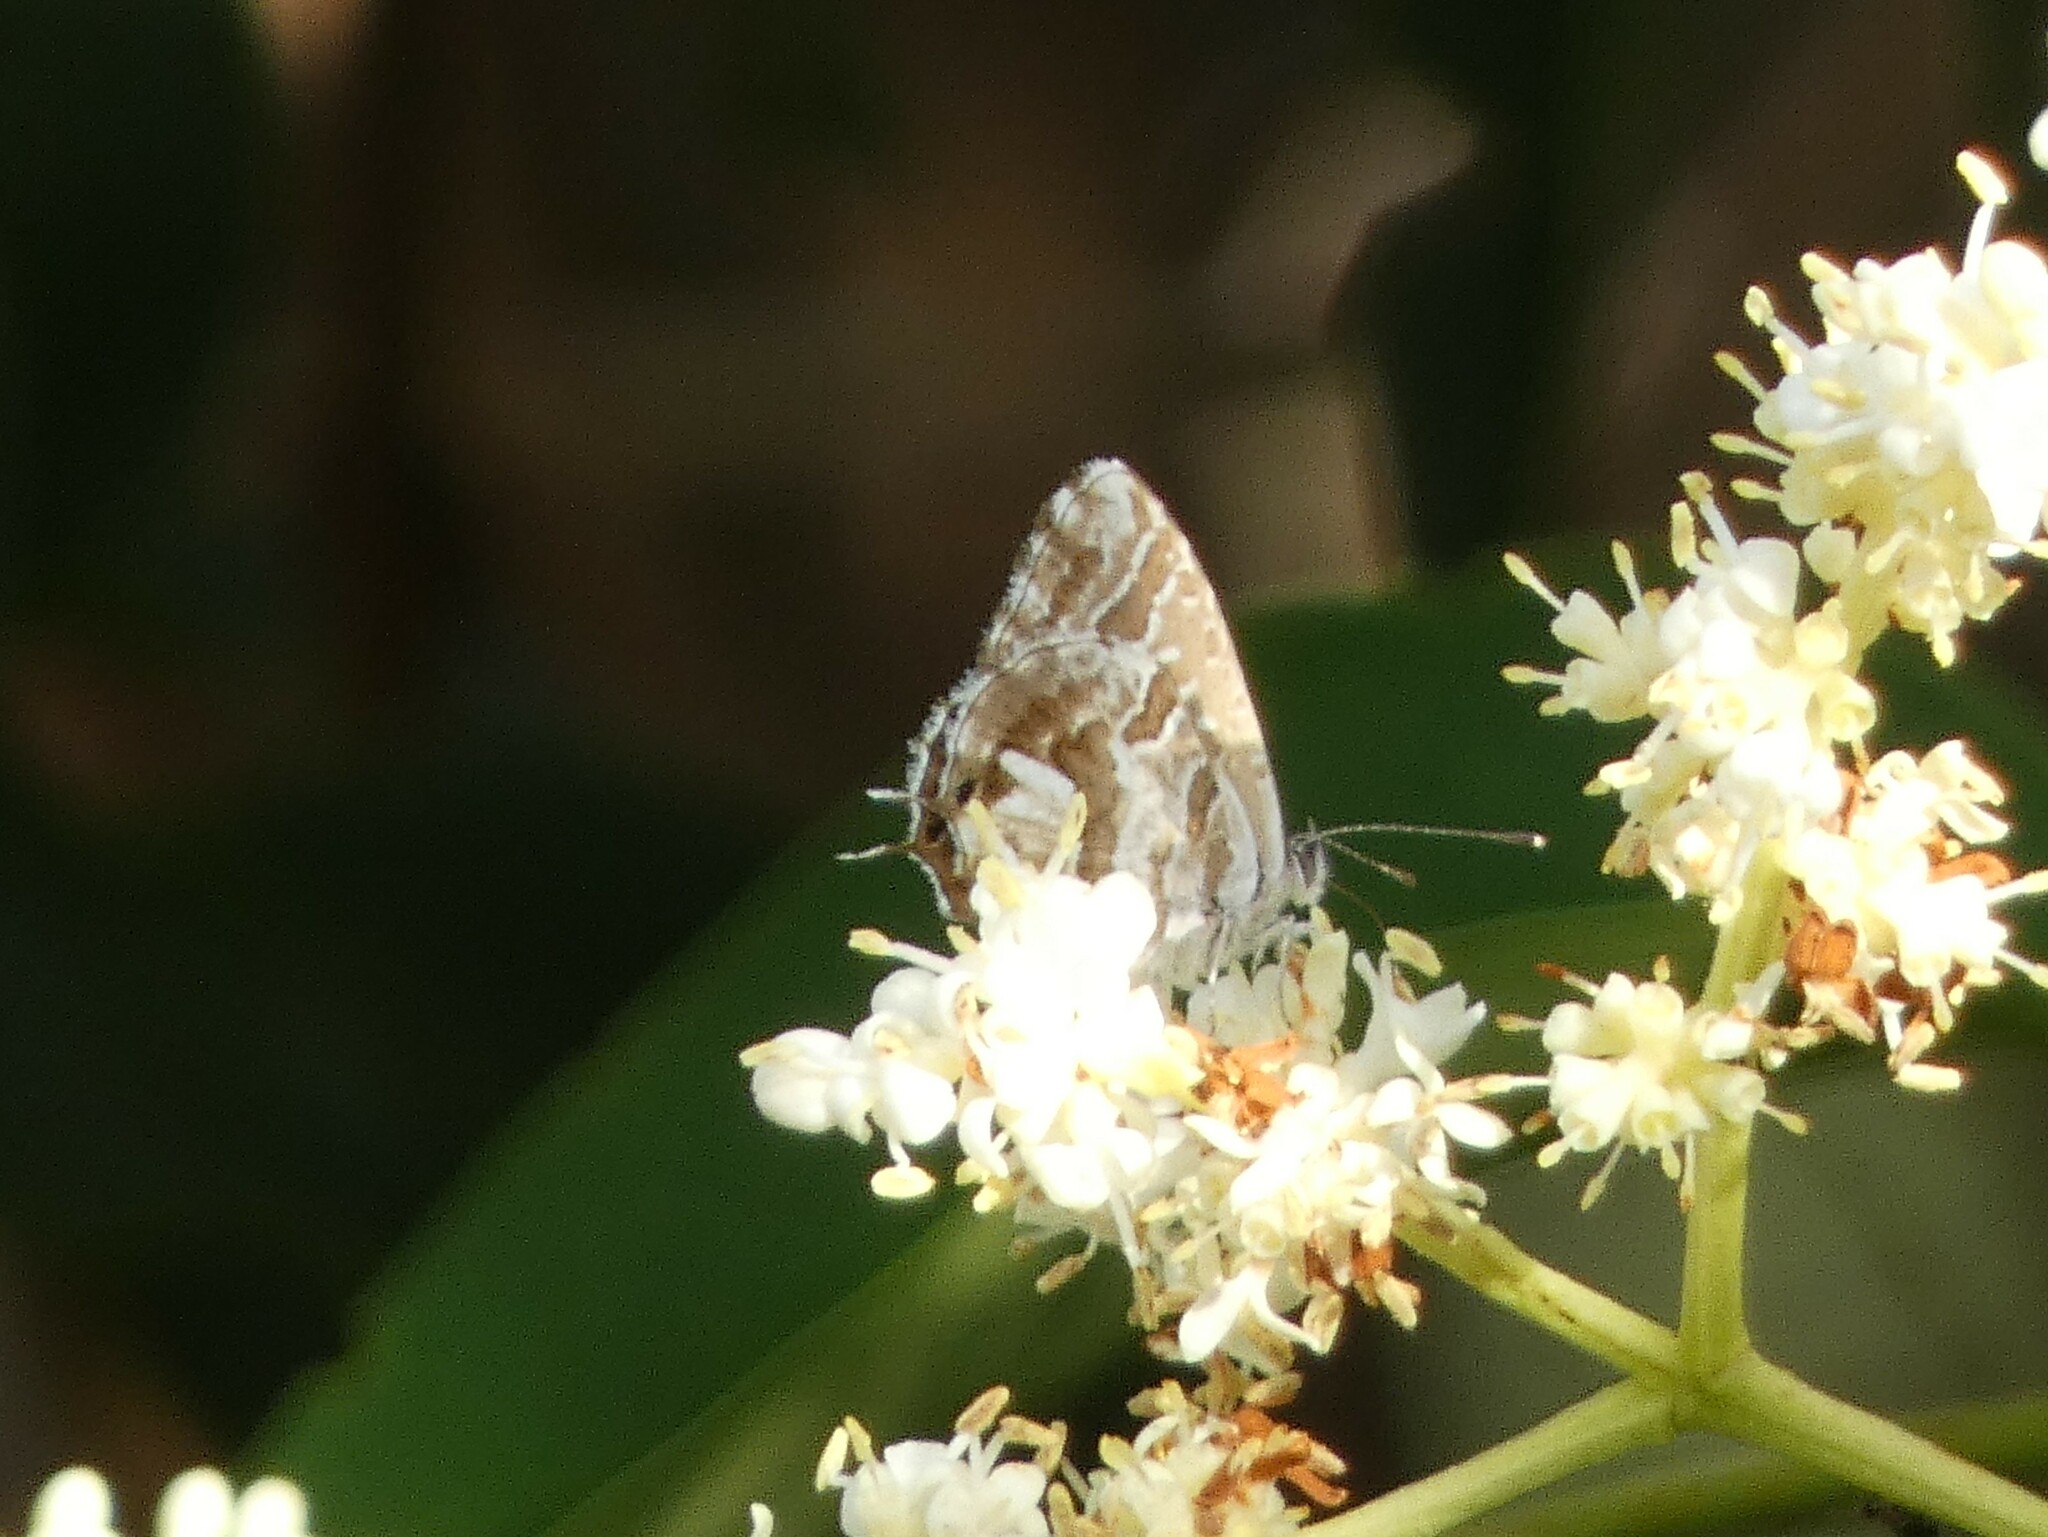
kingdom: Animalia
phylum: Arthropoda
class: Insecta
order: Lepidoptera
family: Lycaenidae
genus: Cacyreus
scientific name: Cacyreus marshalli
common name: Geranium bronze
